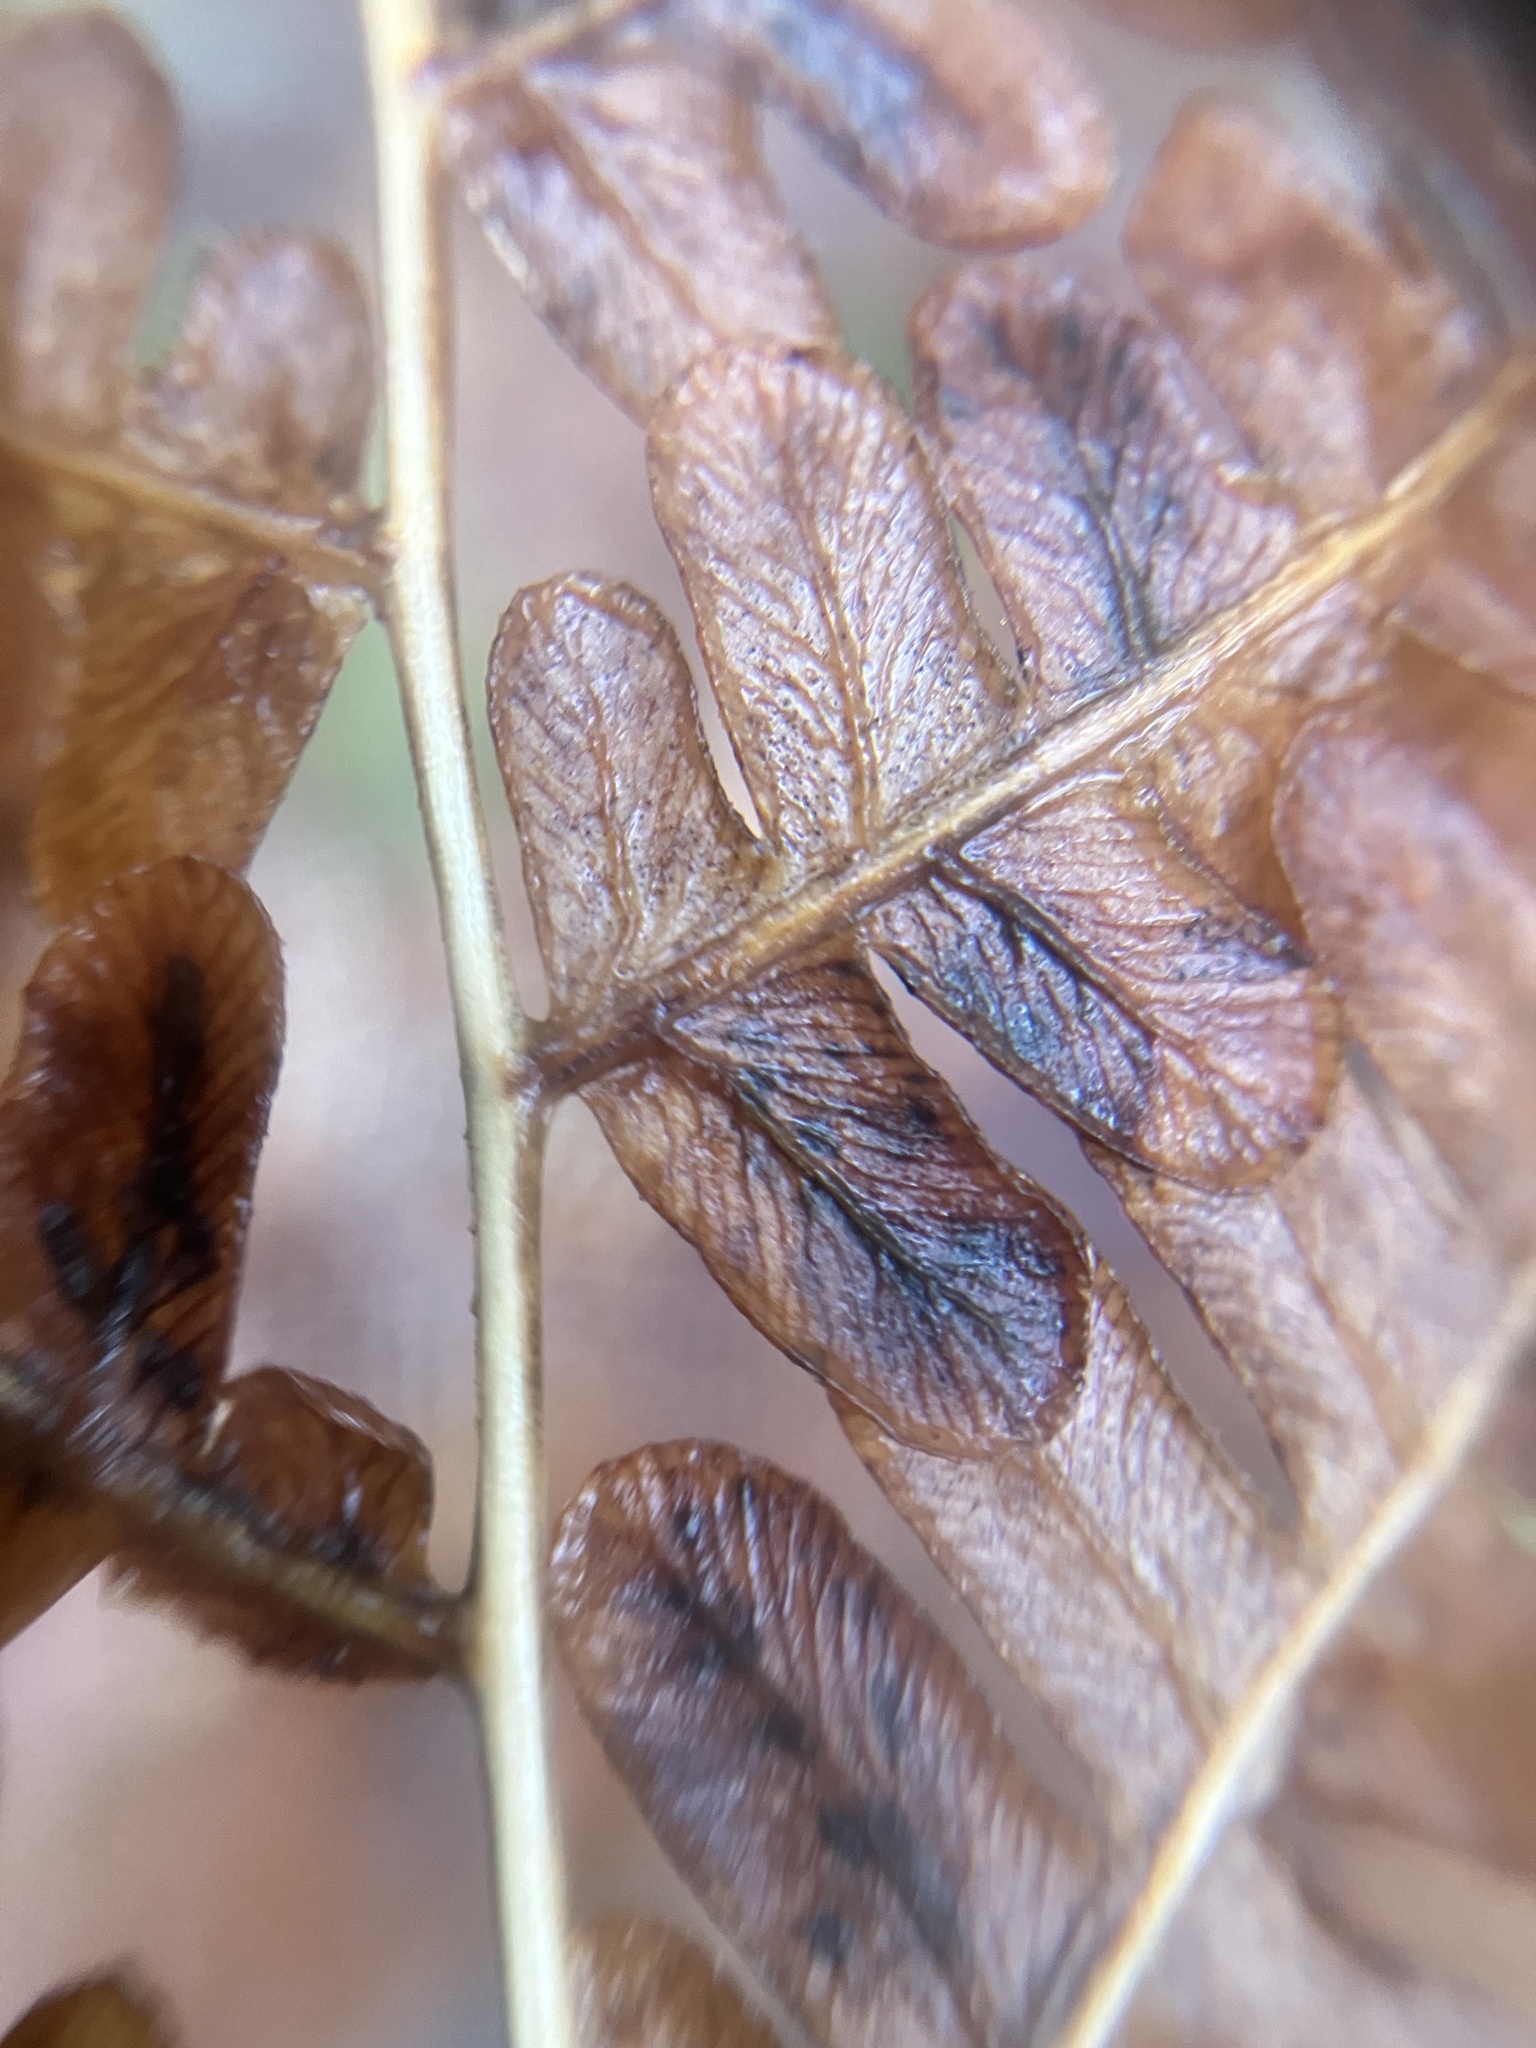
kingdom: Plantae
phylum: Tracheophyta
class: Polypodiopsida
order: Polypodiales
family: Dennstaedtiaceae
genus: Pteridium
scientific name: Pteridium aquilinum
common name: Bracken
